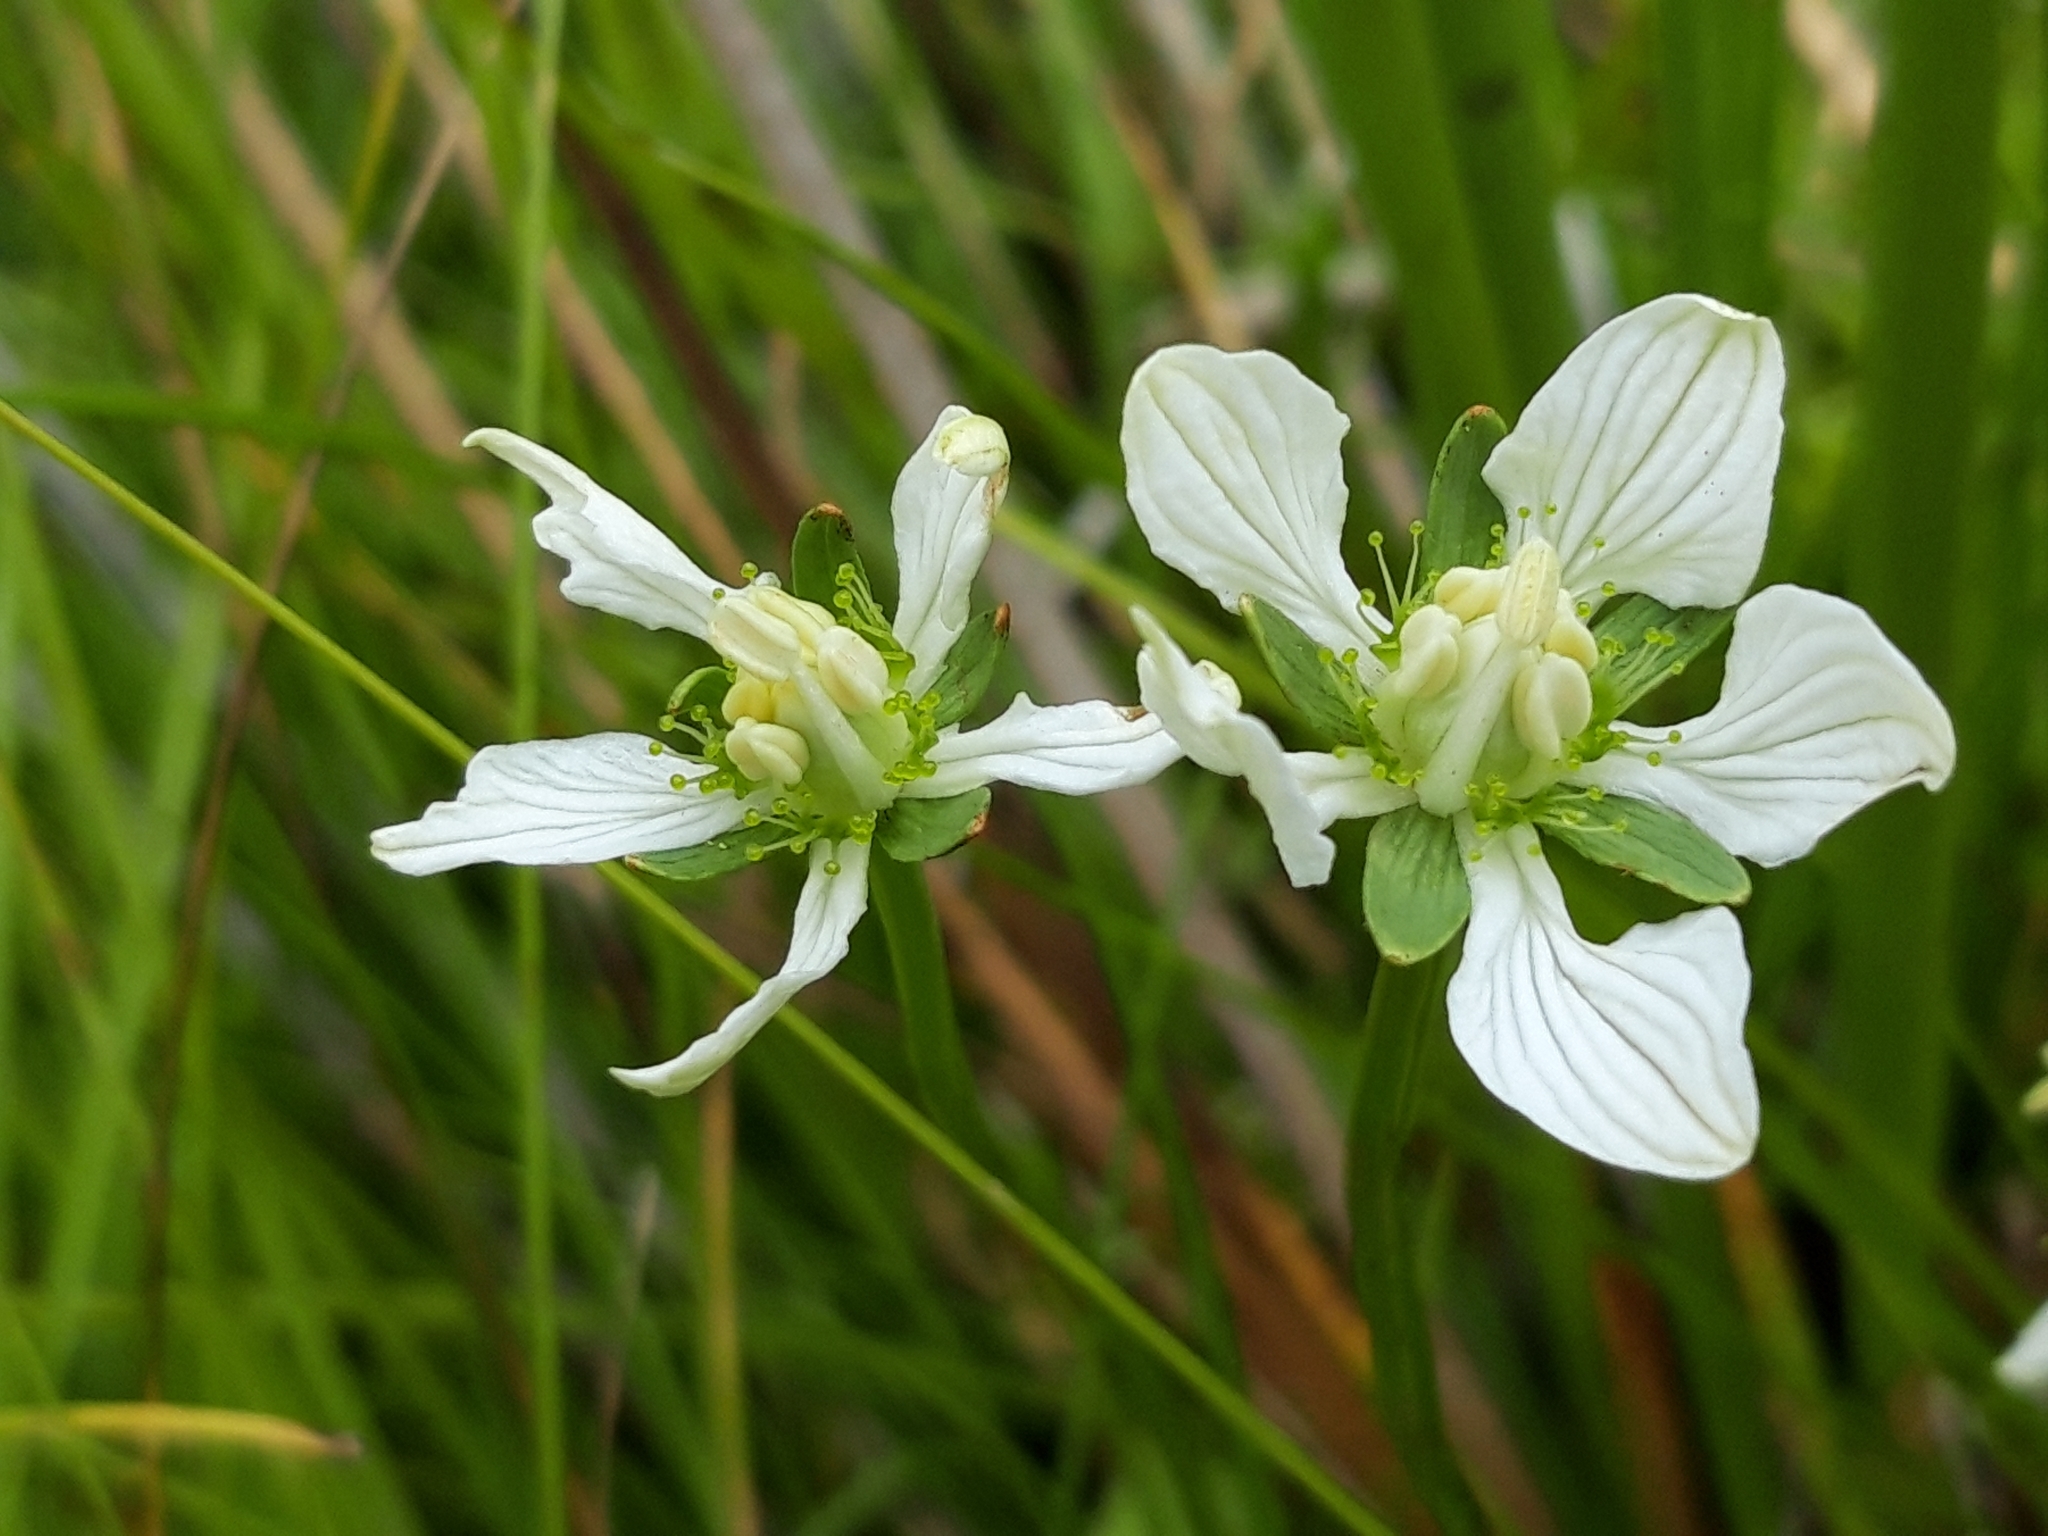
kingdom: Plantae
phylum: Tracheophyta
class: Magnoliopsida
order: Celastrales
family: Parnassiaceae
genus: Parnassia
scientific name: Parnassia palustris
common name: Grass-of-parnassus
